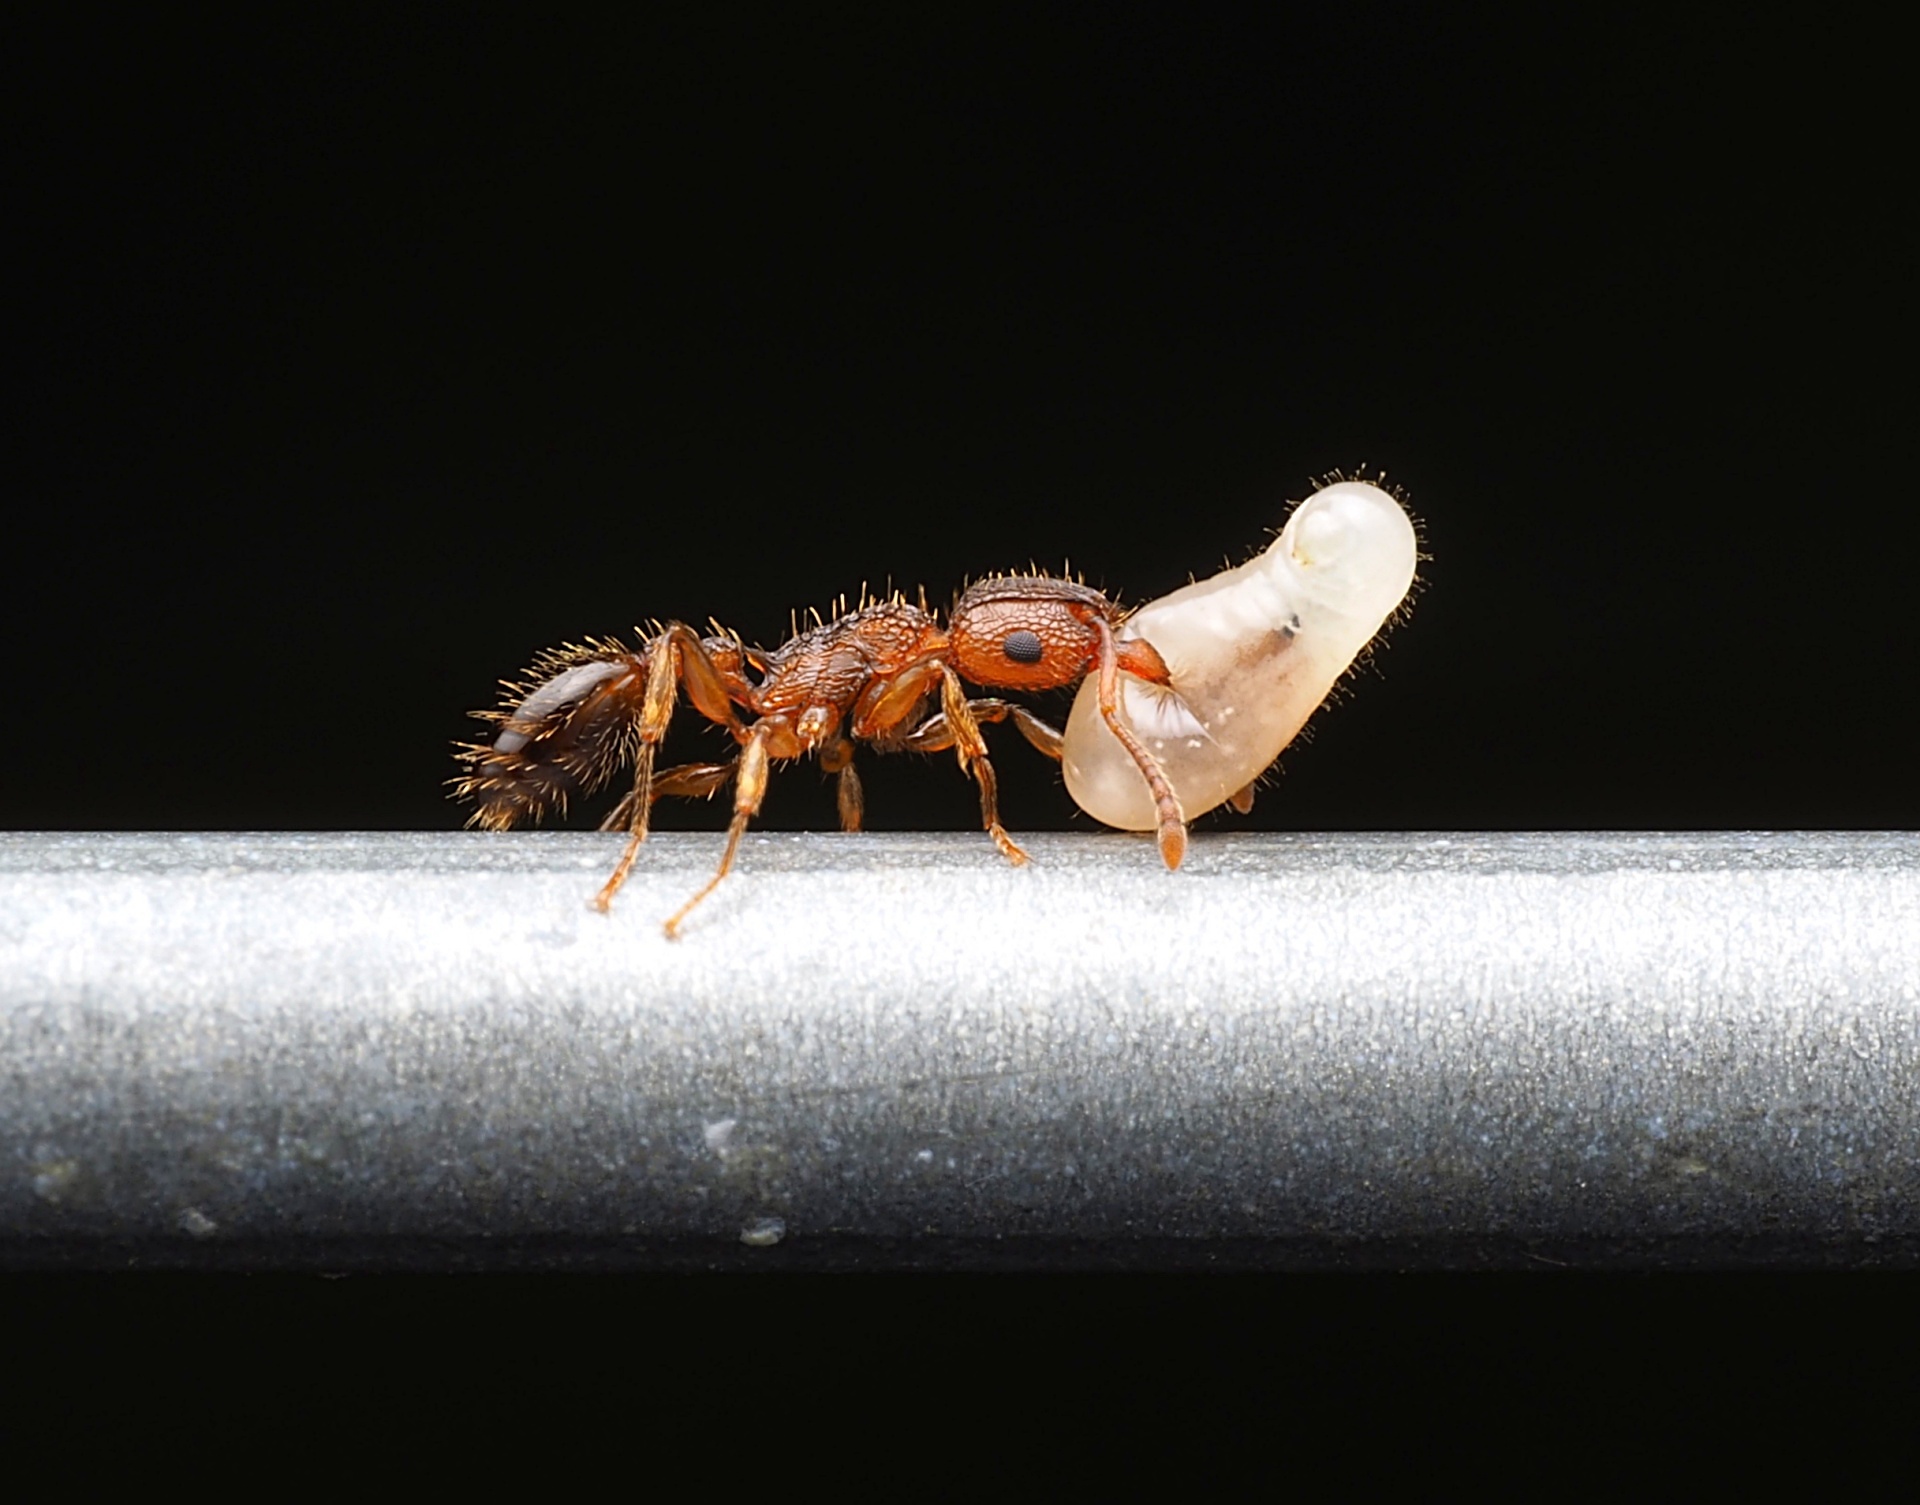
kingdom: Animalia
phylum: Arthropoda
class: Insecta
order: Hymenoptera
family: Formicidae
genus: Tetramorium
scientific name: Tetramorium bicarinatum
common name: Guinea ant
